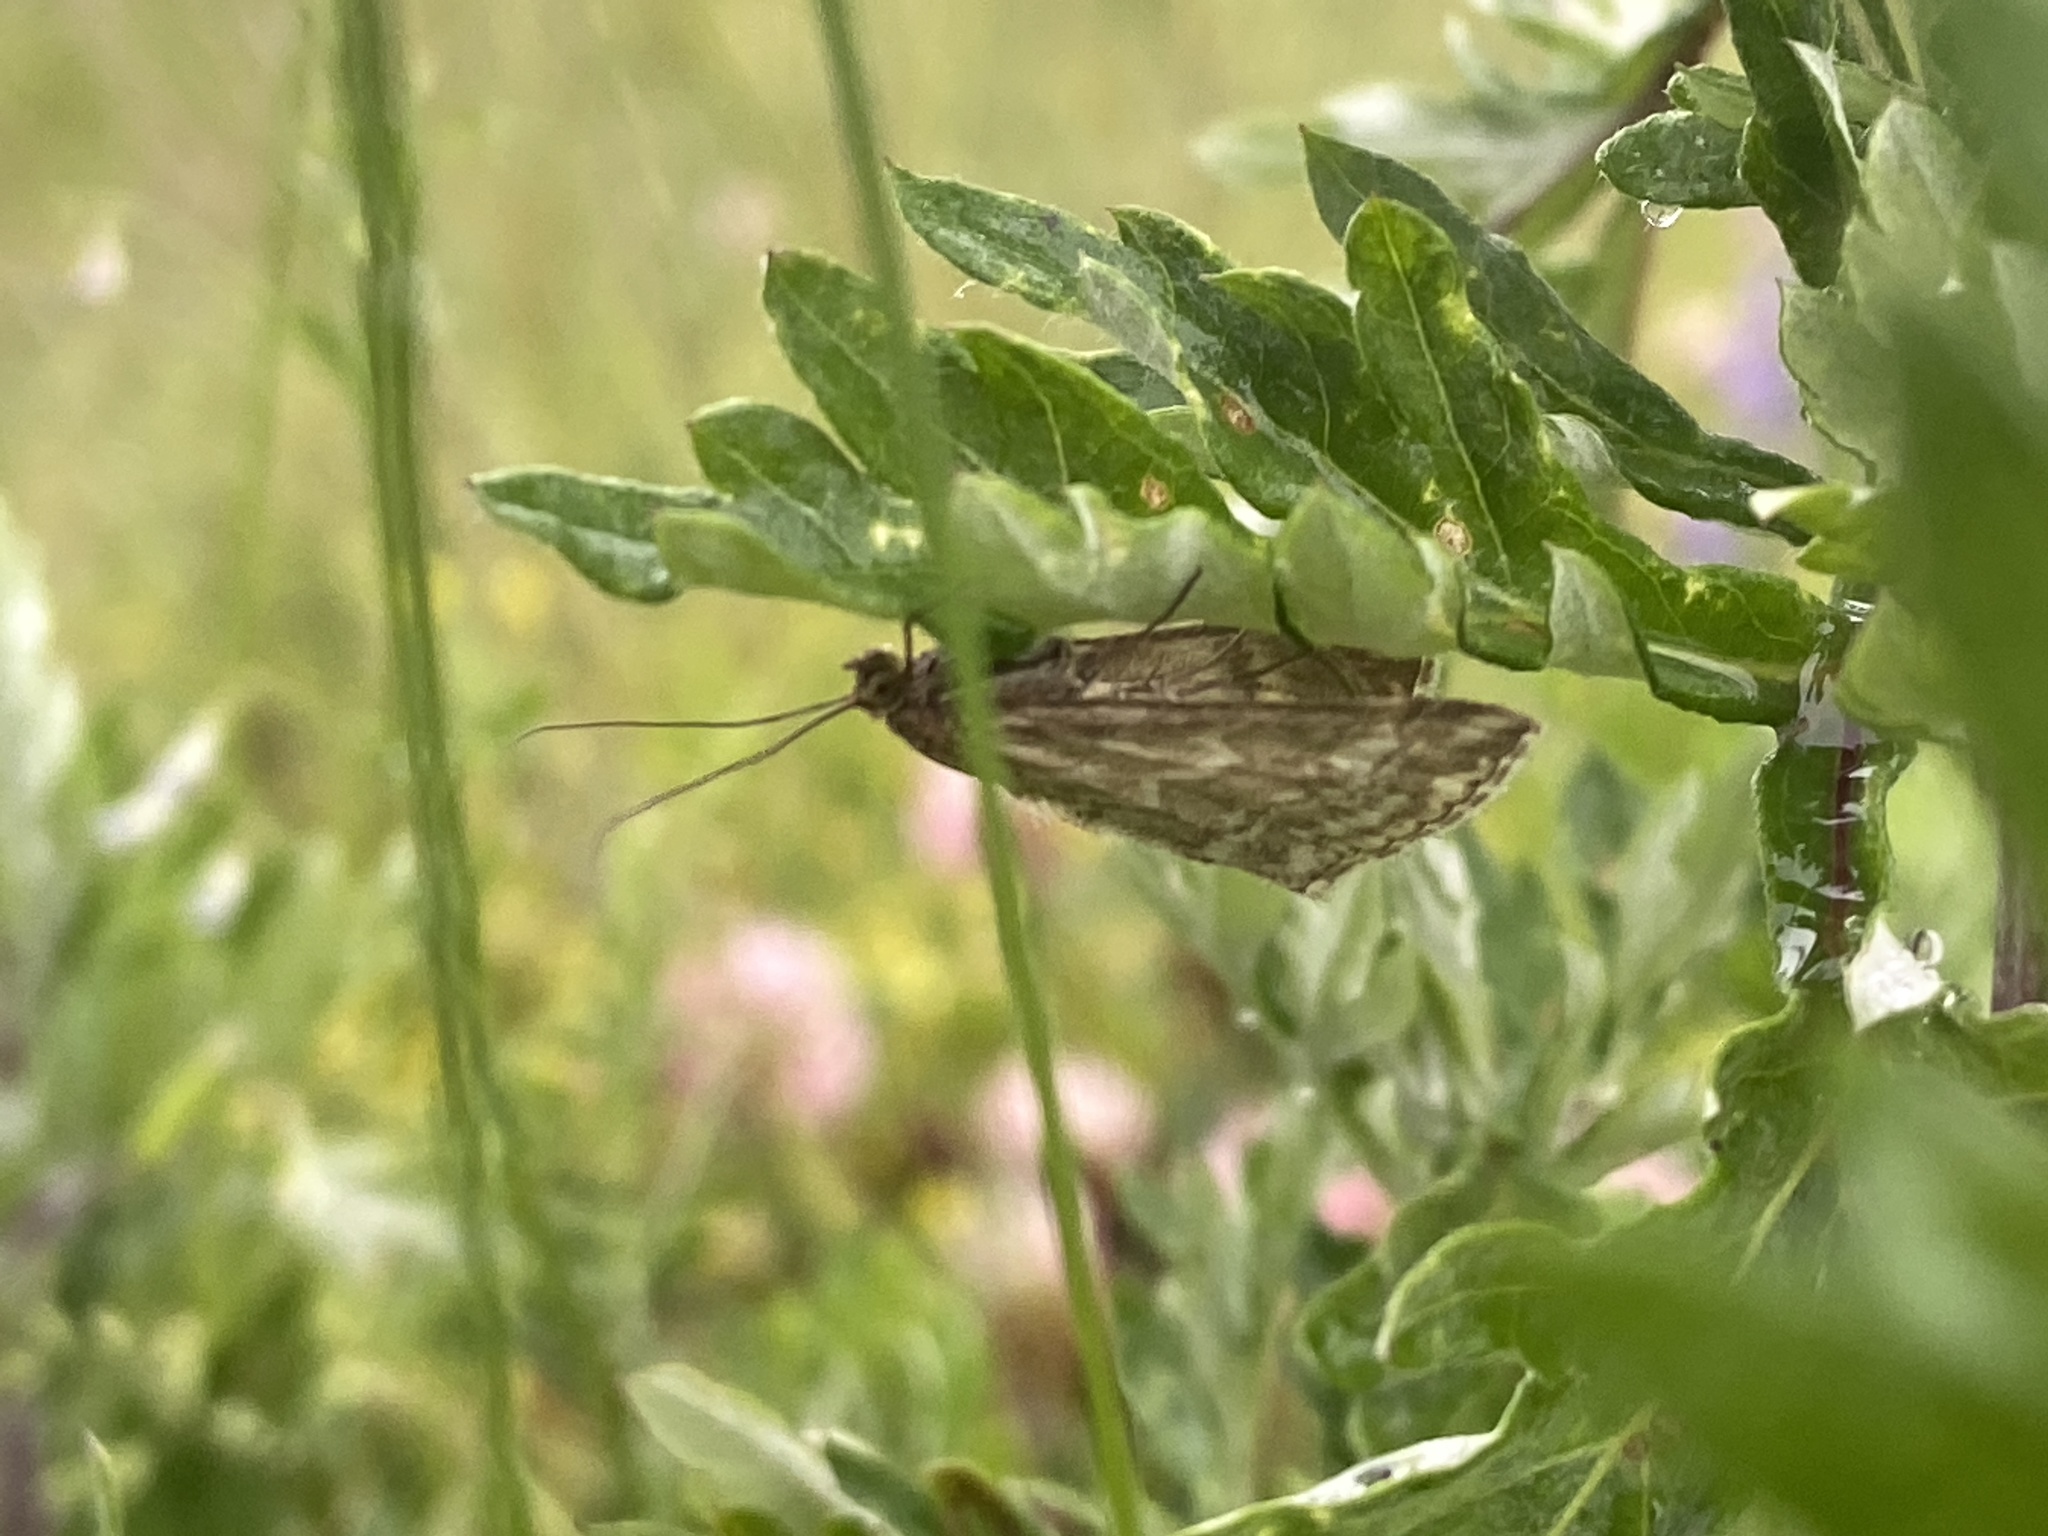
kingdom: Animalia
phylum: Arthropoda
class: Insecta
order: Lepidoptera
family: Crambidae
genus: Evergestis
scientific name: Evergestis frumentalis
